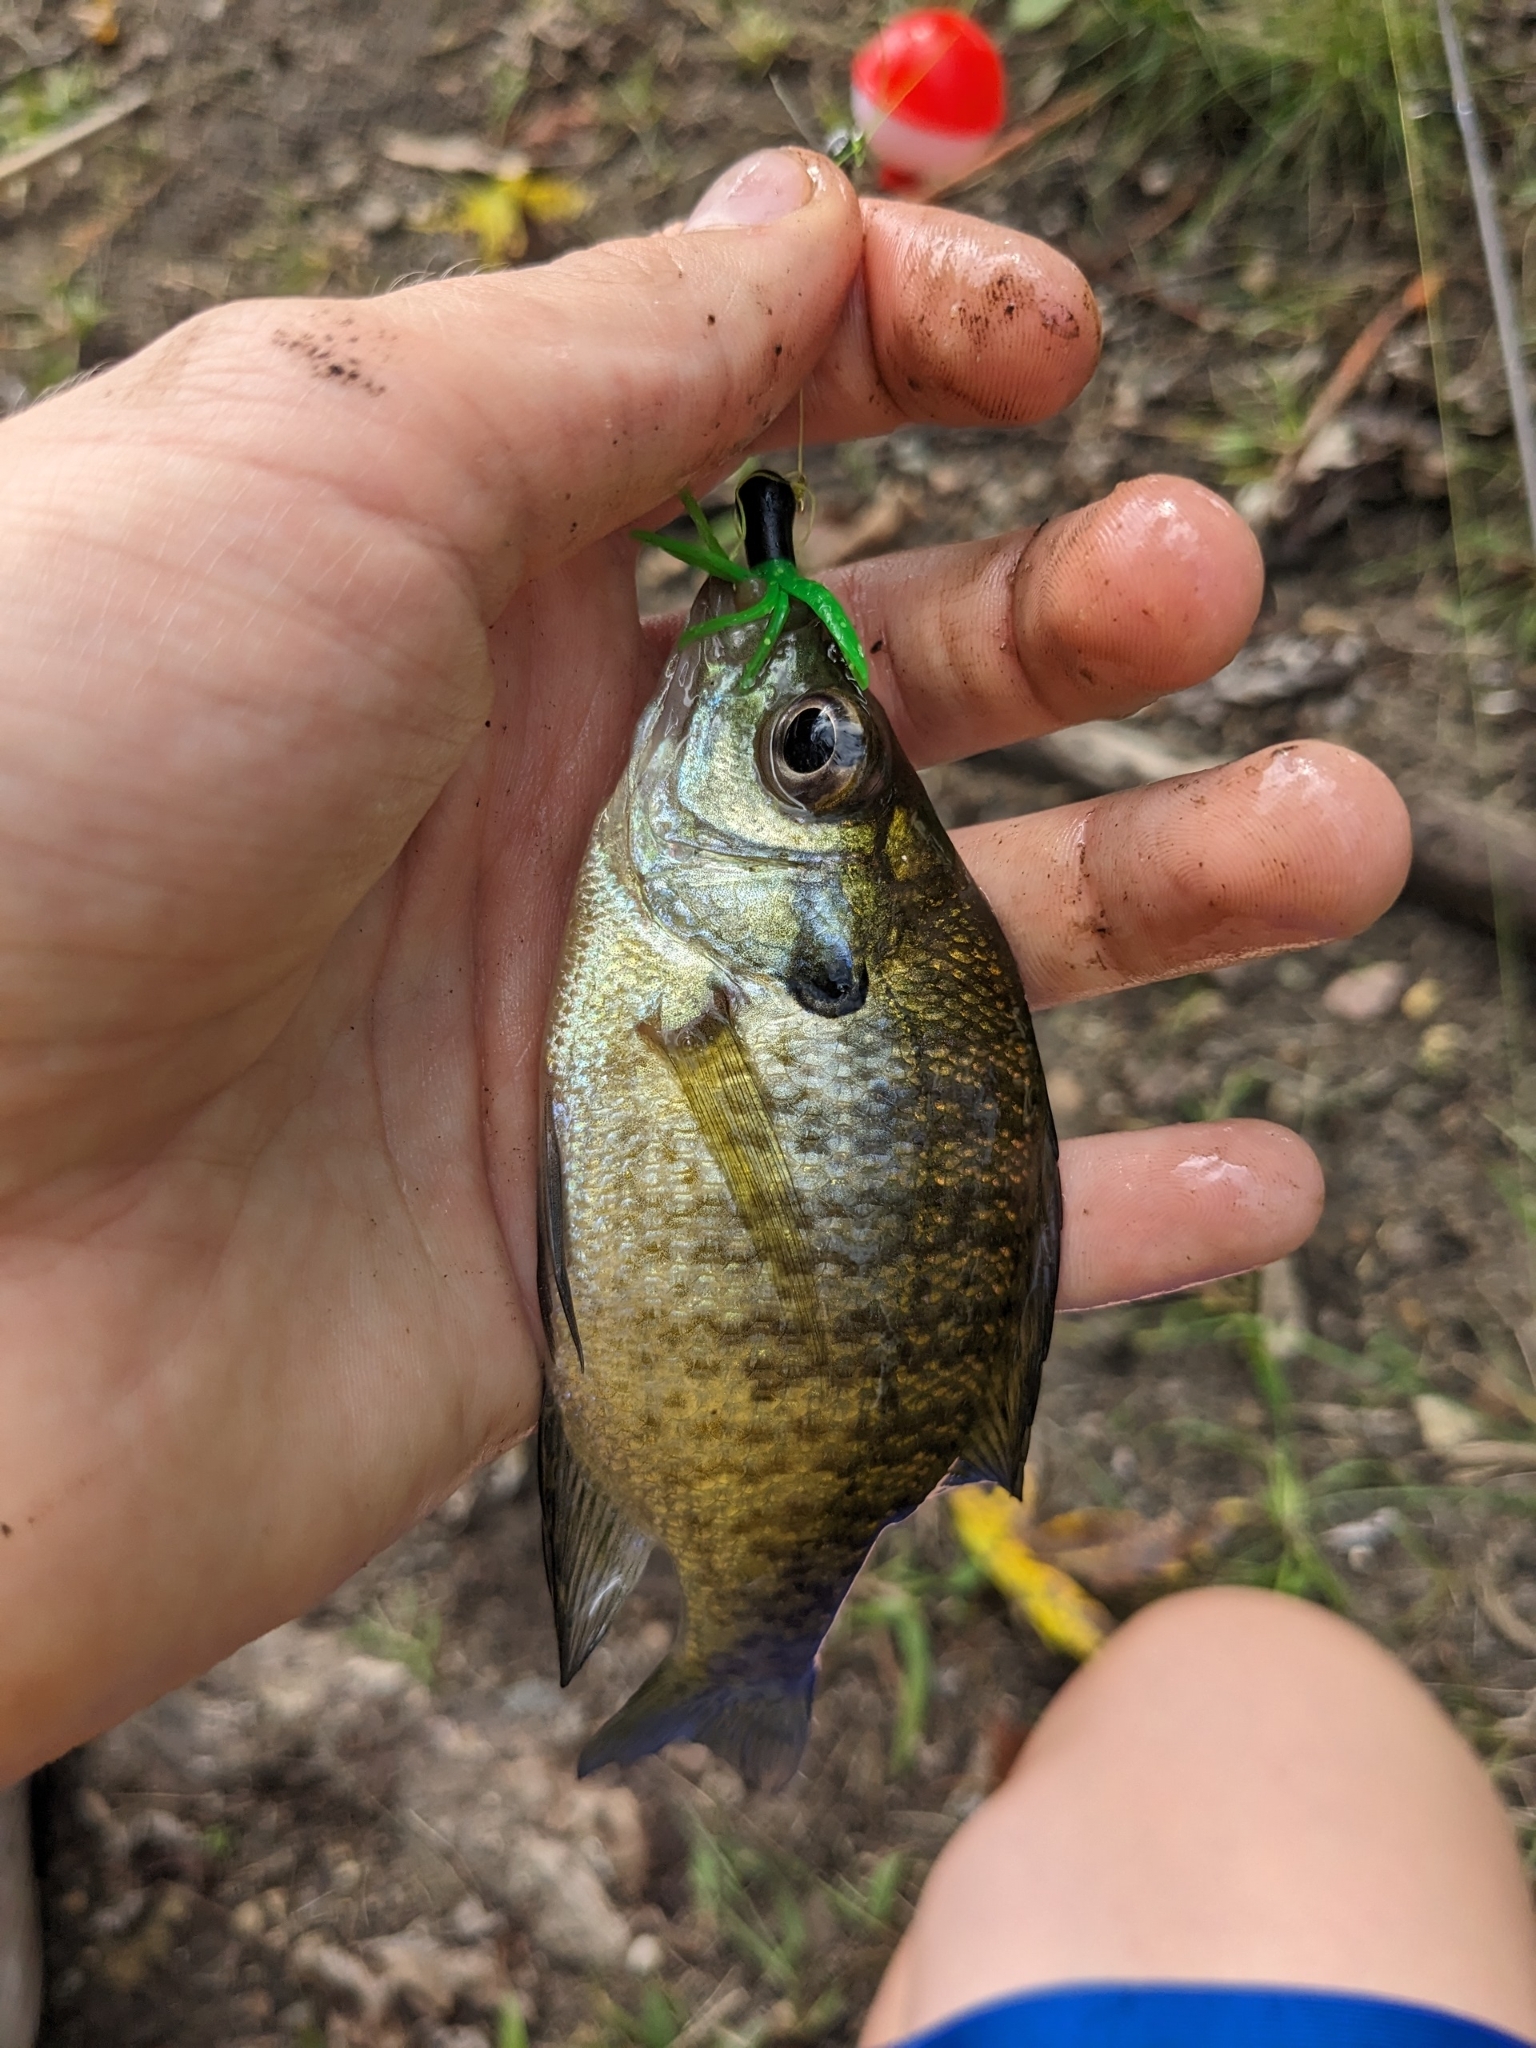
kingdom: Animalia
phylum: Chordata
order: Perciformes
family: Centrarchidae
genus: Lepomis
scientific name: Lepomis macrochirus
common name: Bluegill
